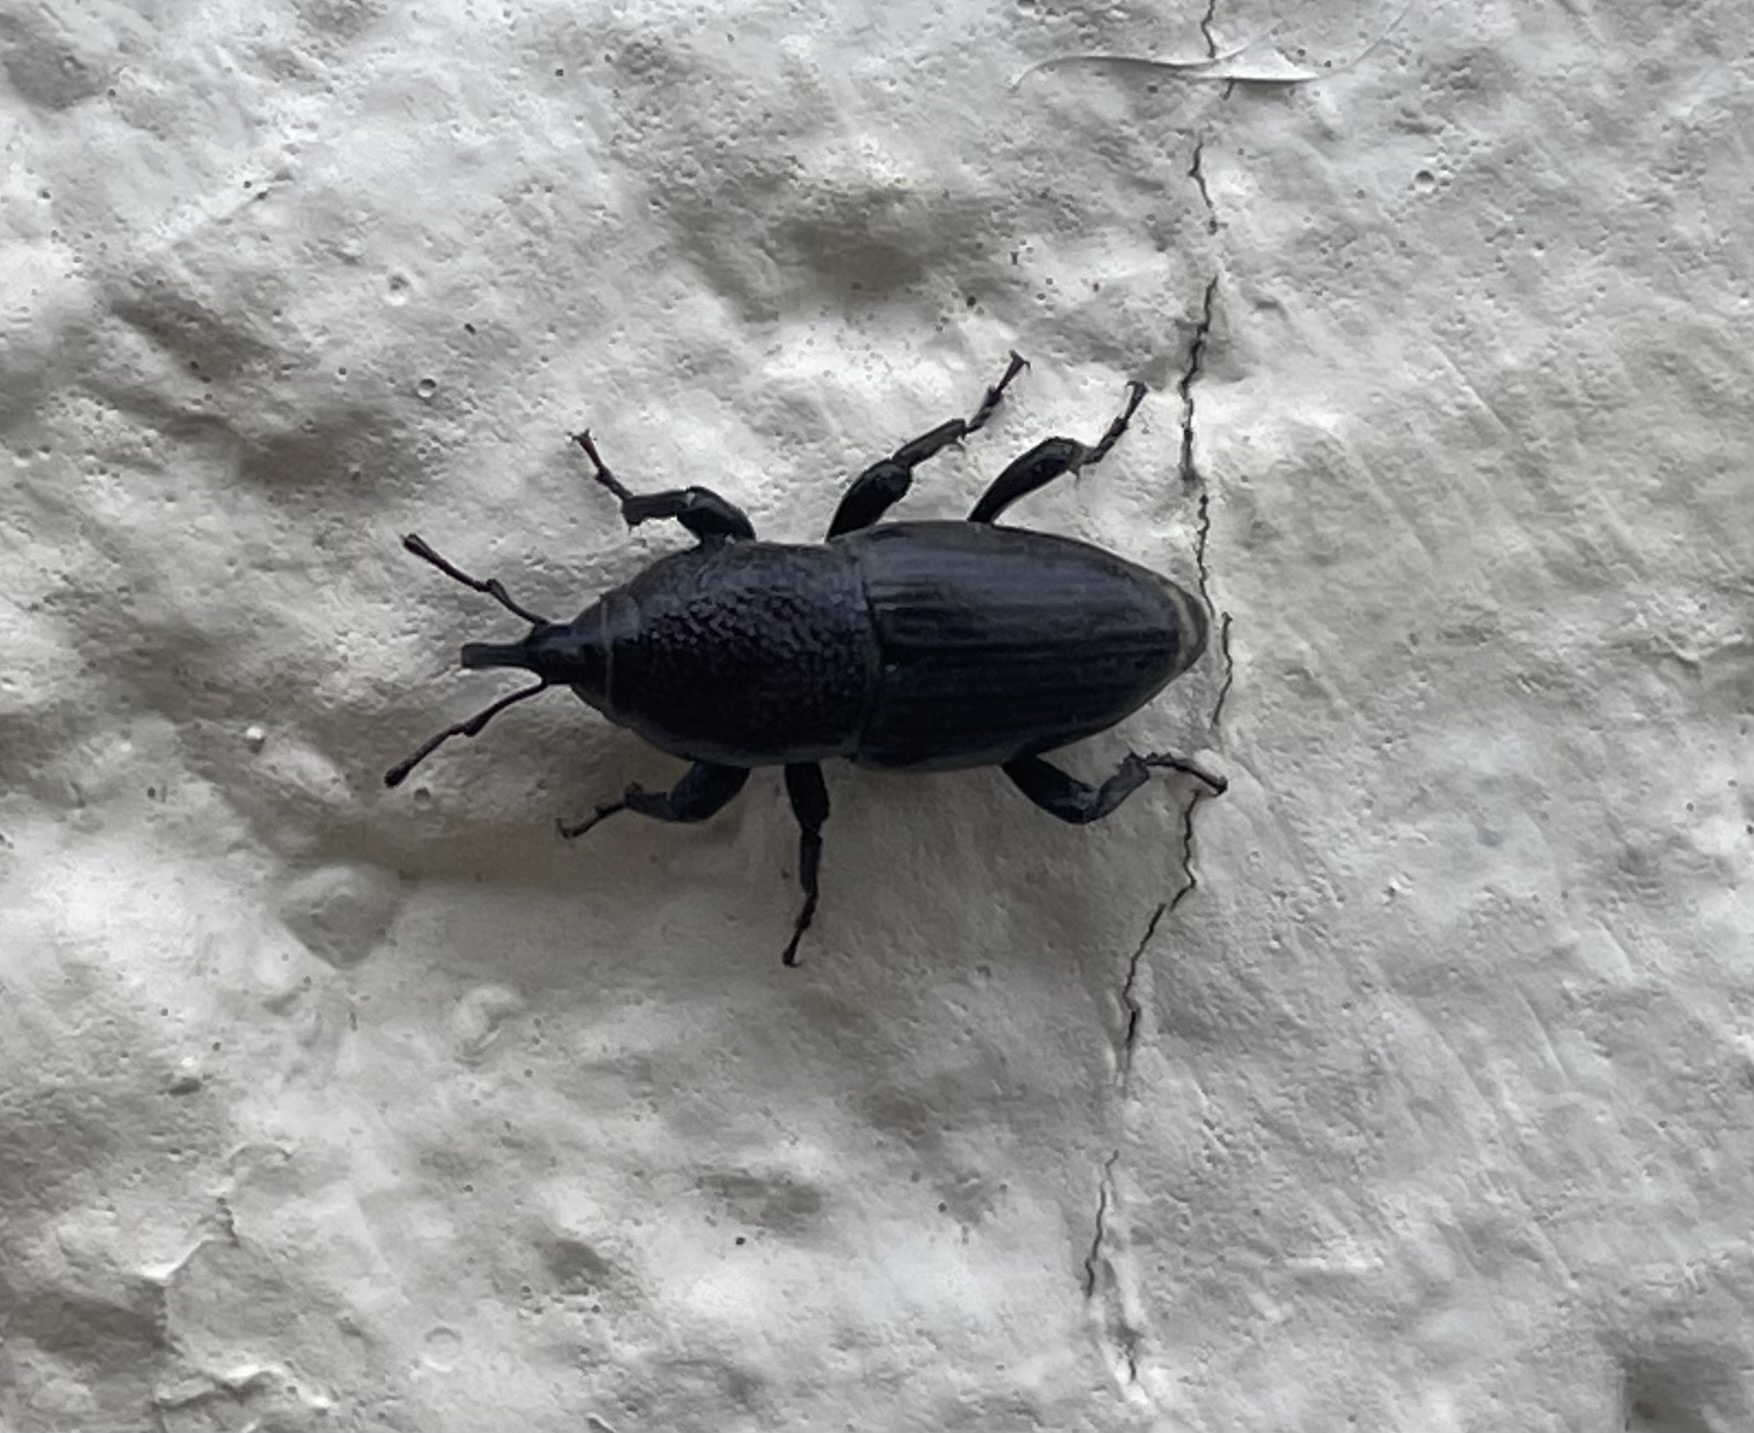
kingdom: Animalia
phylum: Arthropoda
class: Insecta
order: Coleoptera
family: Dryophthoridae
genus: Sphenophorus
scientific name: Sphenophorus coesifrons
